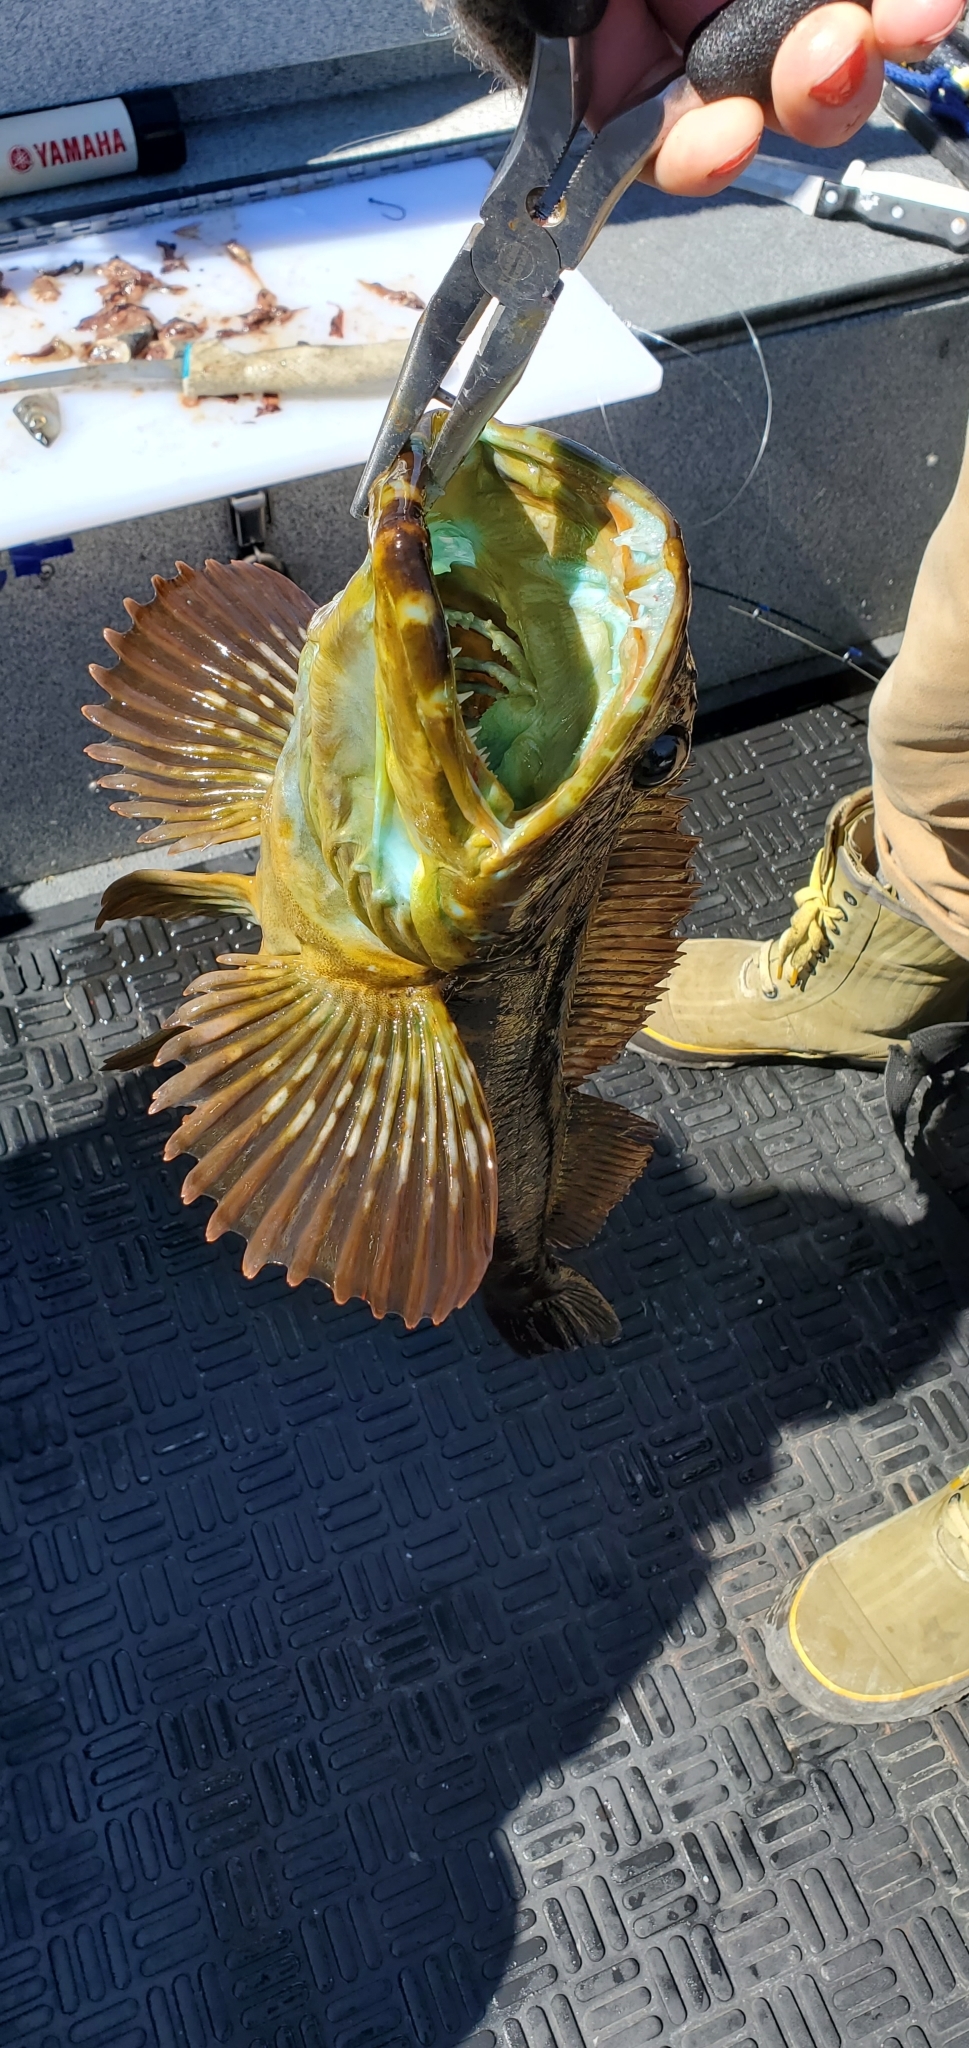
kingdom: Animalia
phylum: Chordata
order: Scorpaeniformes
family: Hexagrammidae
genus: Ophiodon
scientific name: Ophiodon elongatus
